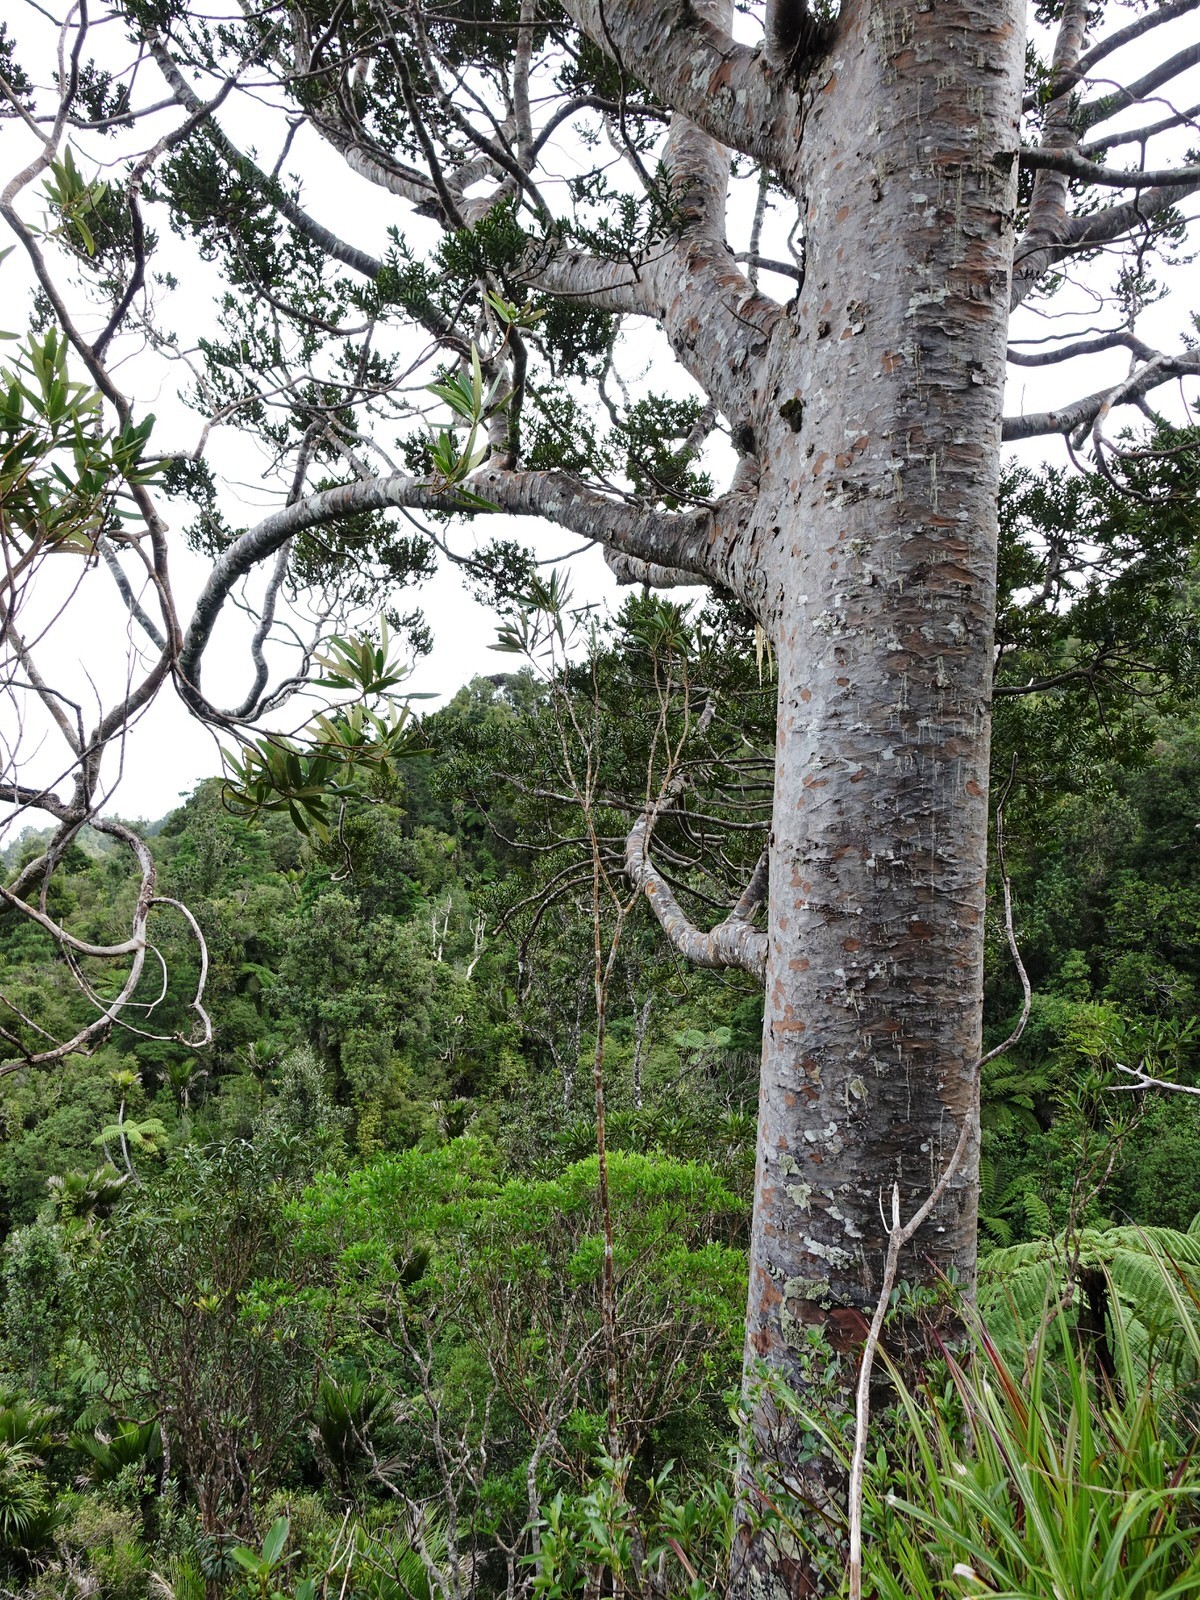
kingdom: Plantae
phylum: Tracheophyta
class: Pinopsida
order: Pinales
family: Araucariaceae
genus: Agathis
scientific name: Agathis australis
